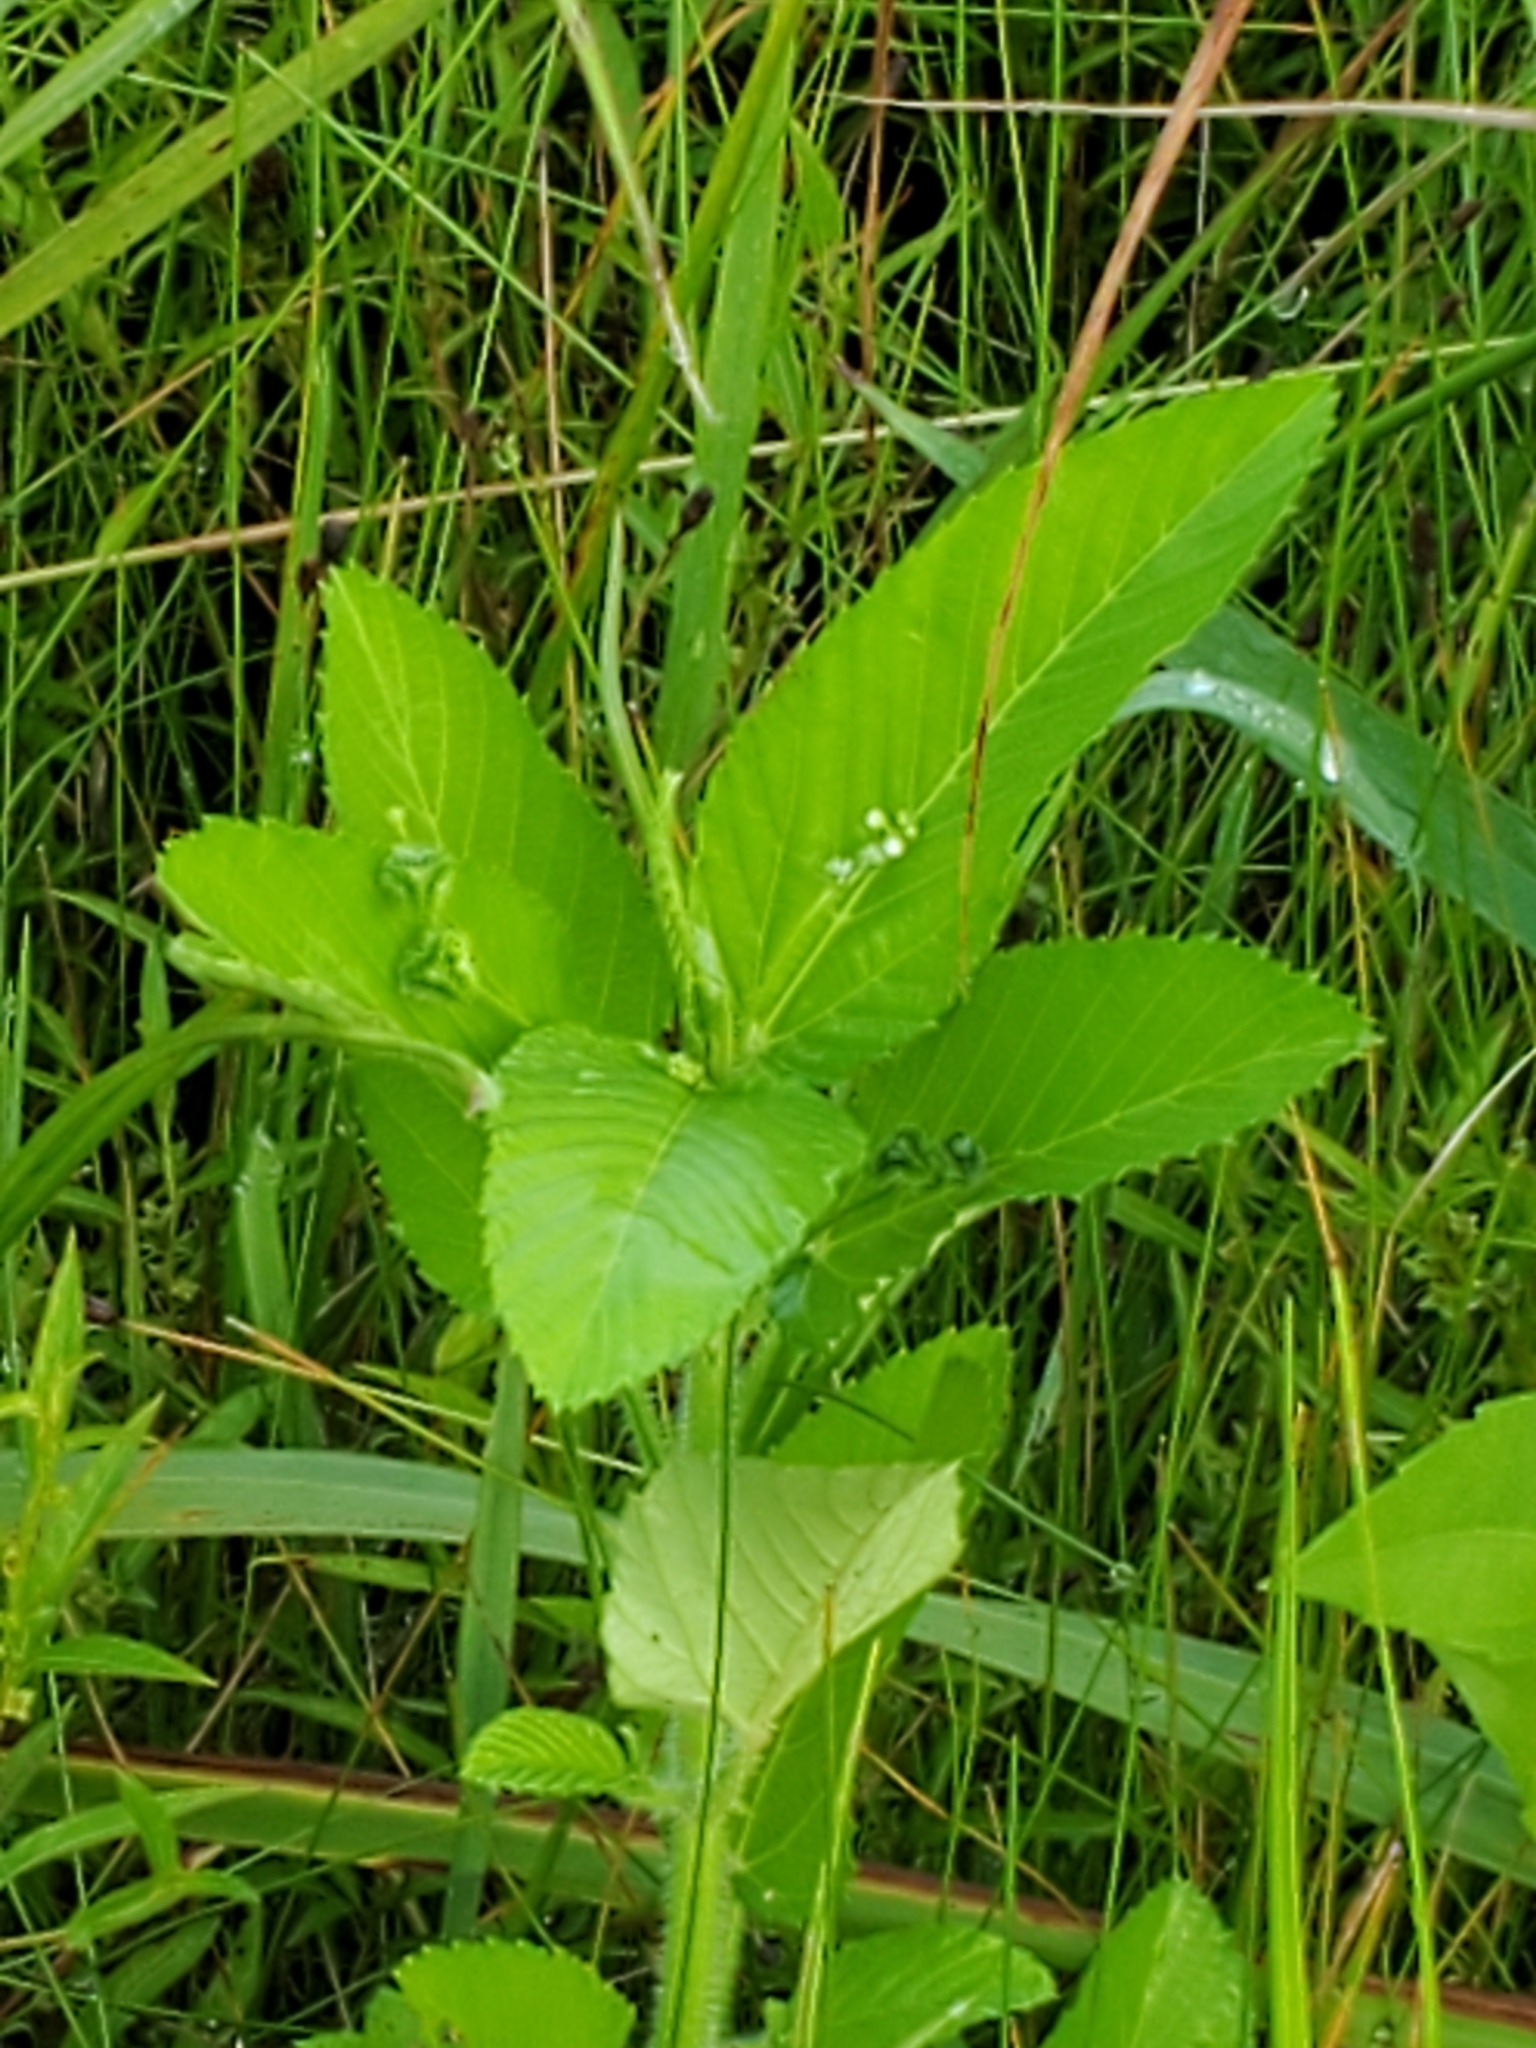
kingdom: Plantae
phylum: Tracheophyta
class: Magnoliopsida
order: Malpighiales
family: Euphorbiaceae
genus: Caperonia
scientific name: Caperonia palustris
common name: Sacatrapo
